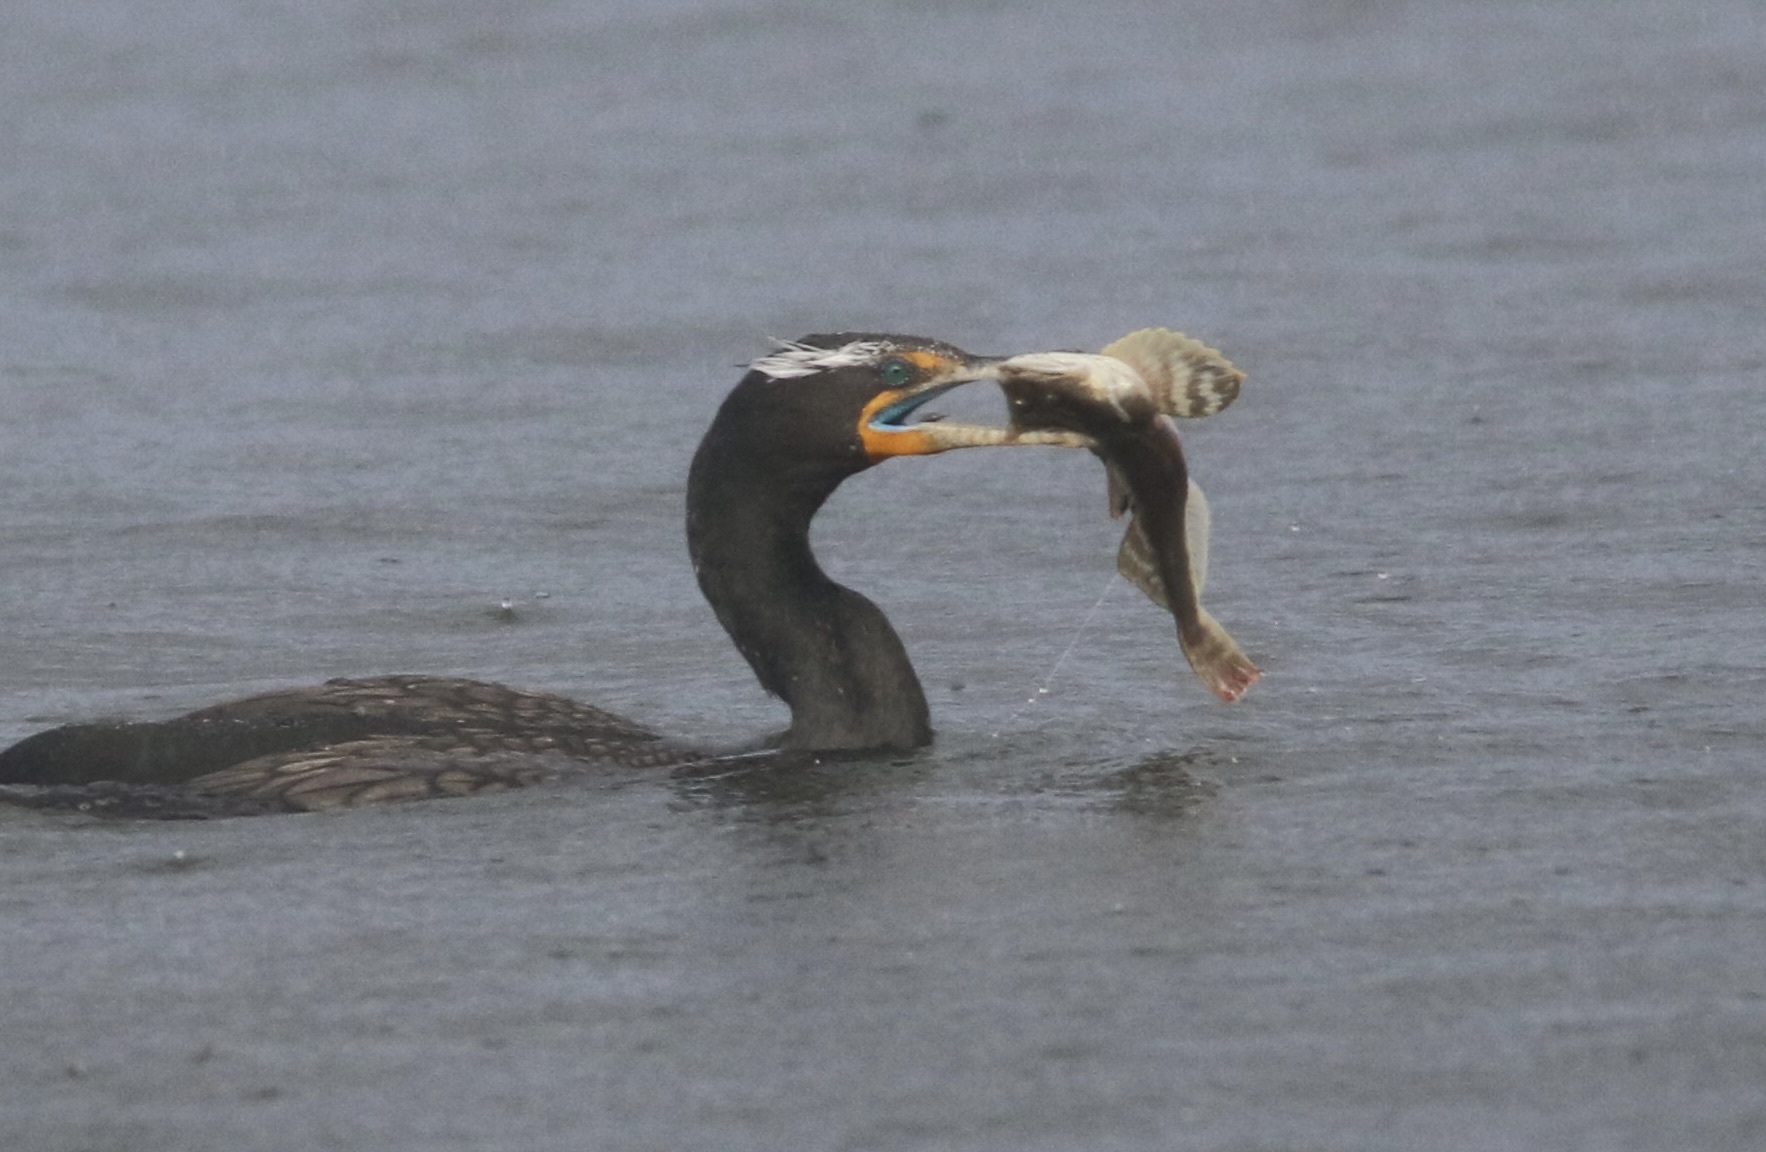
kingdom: Animalia
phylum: Chordata
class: Aves
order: Suliformes
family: Phalacrocoracidae
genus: Phalacrocorax
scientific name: Phalacrocorax auritus
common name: Double-crested cormorant
